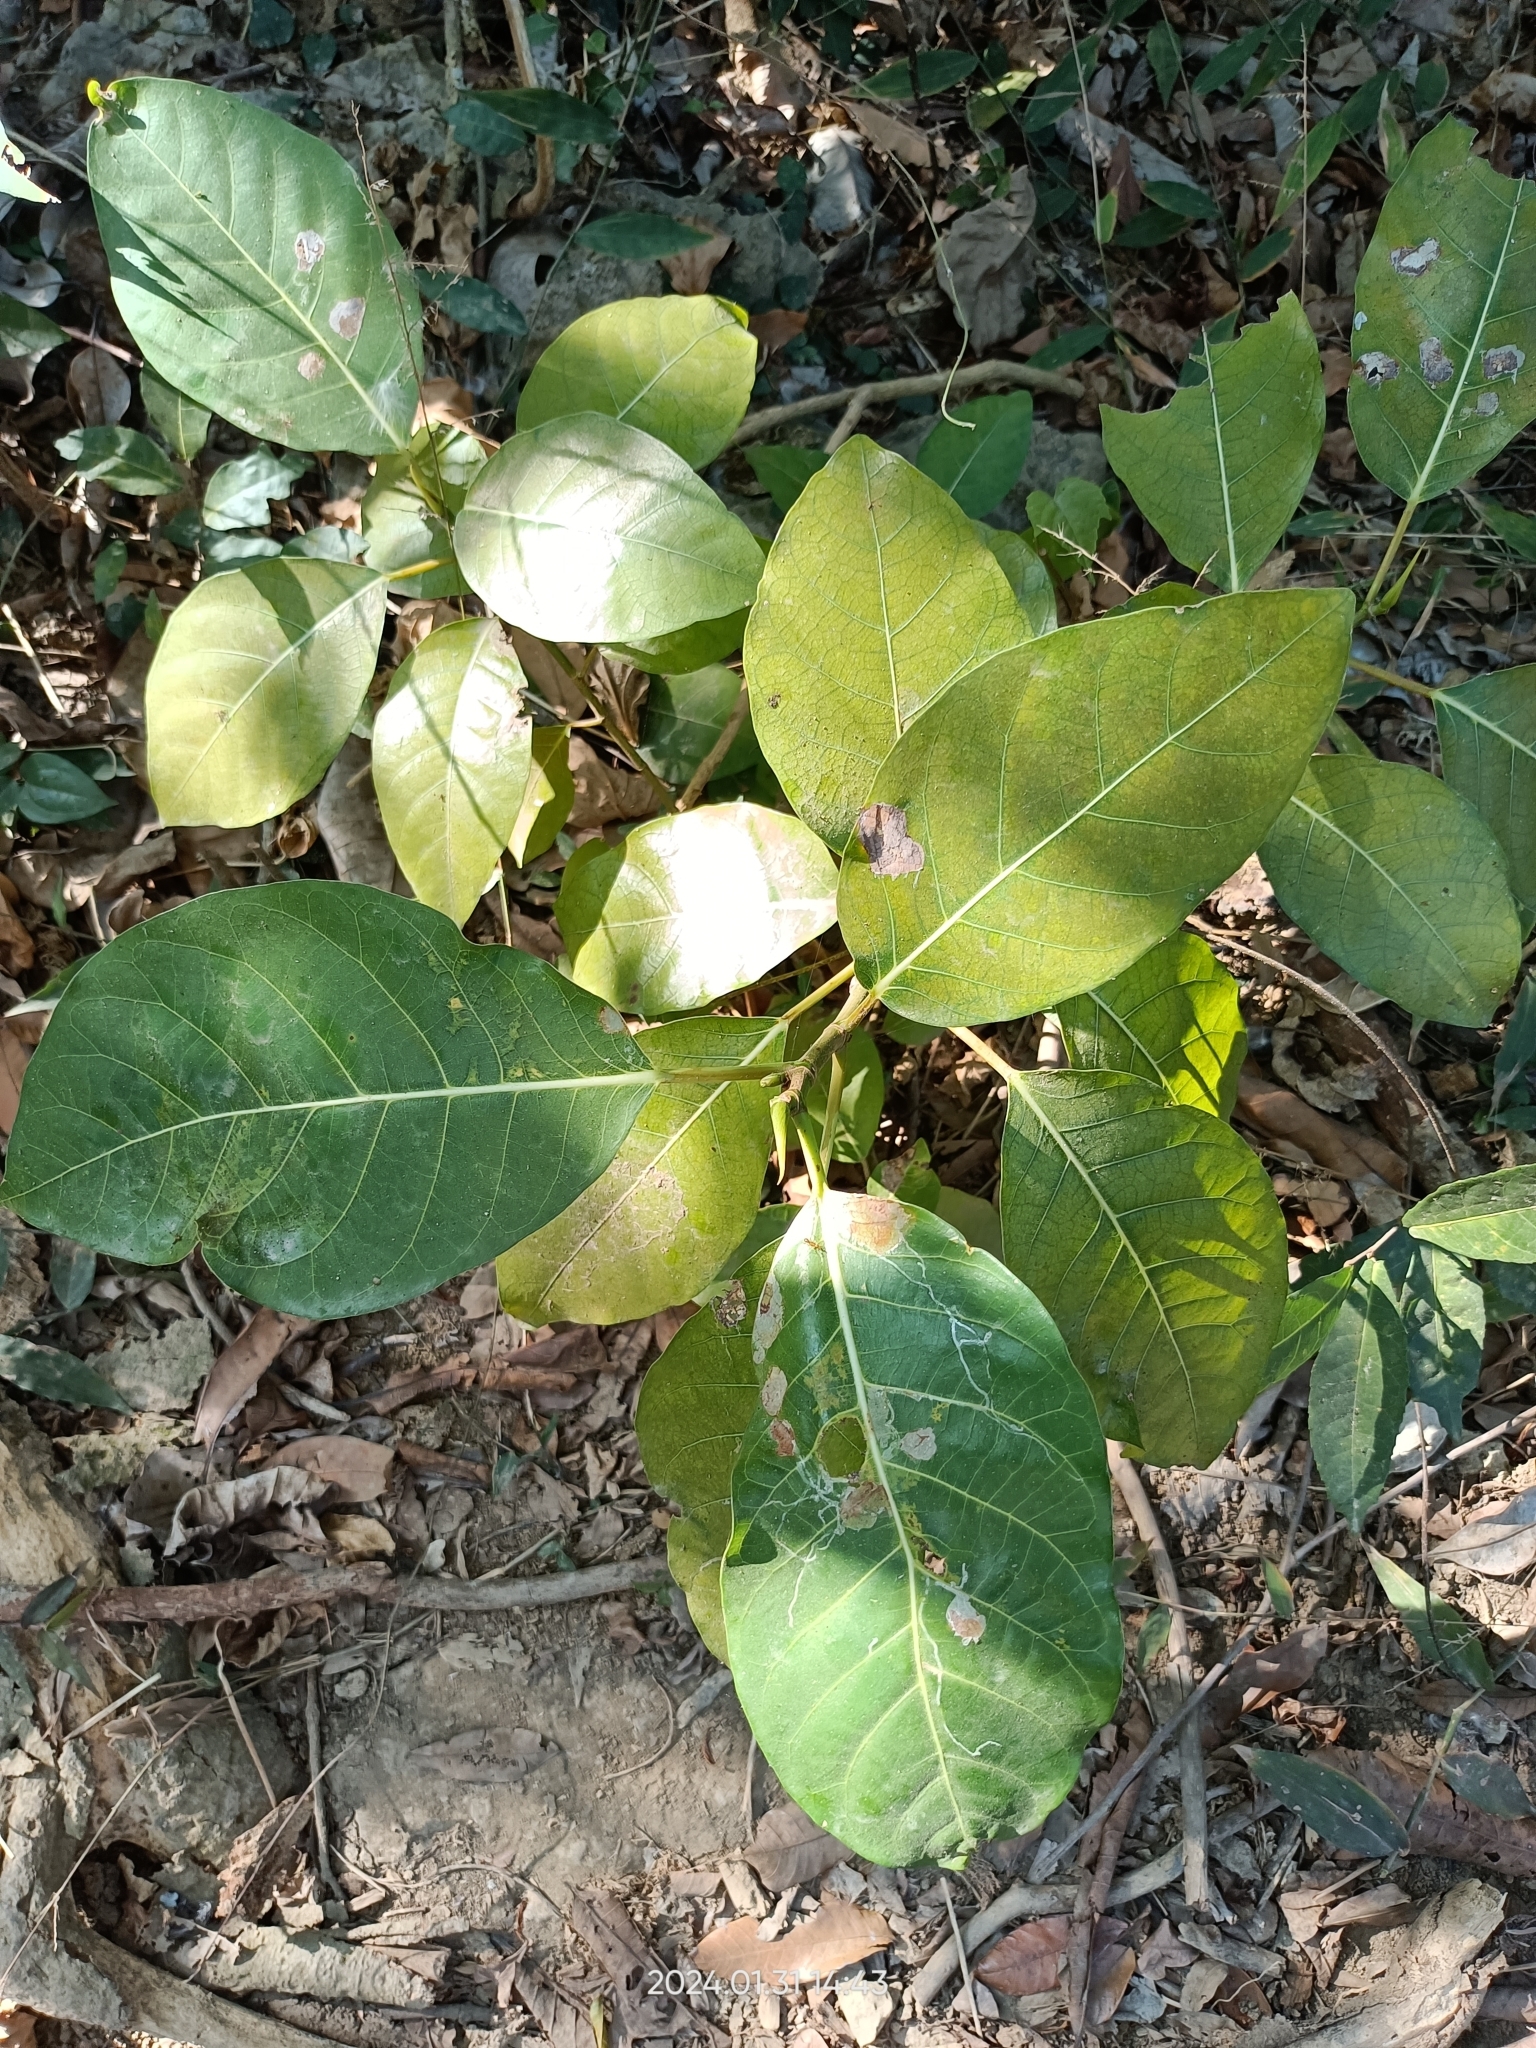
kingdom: Plantae
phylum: Tracheophyta
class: Magnoliopsida
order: Rosales
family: Moraceae
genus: Ficus
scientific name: Ficus septica
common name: Septic fig
